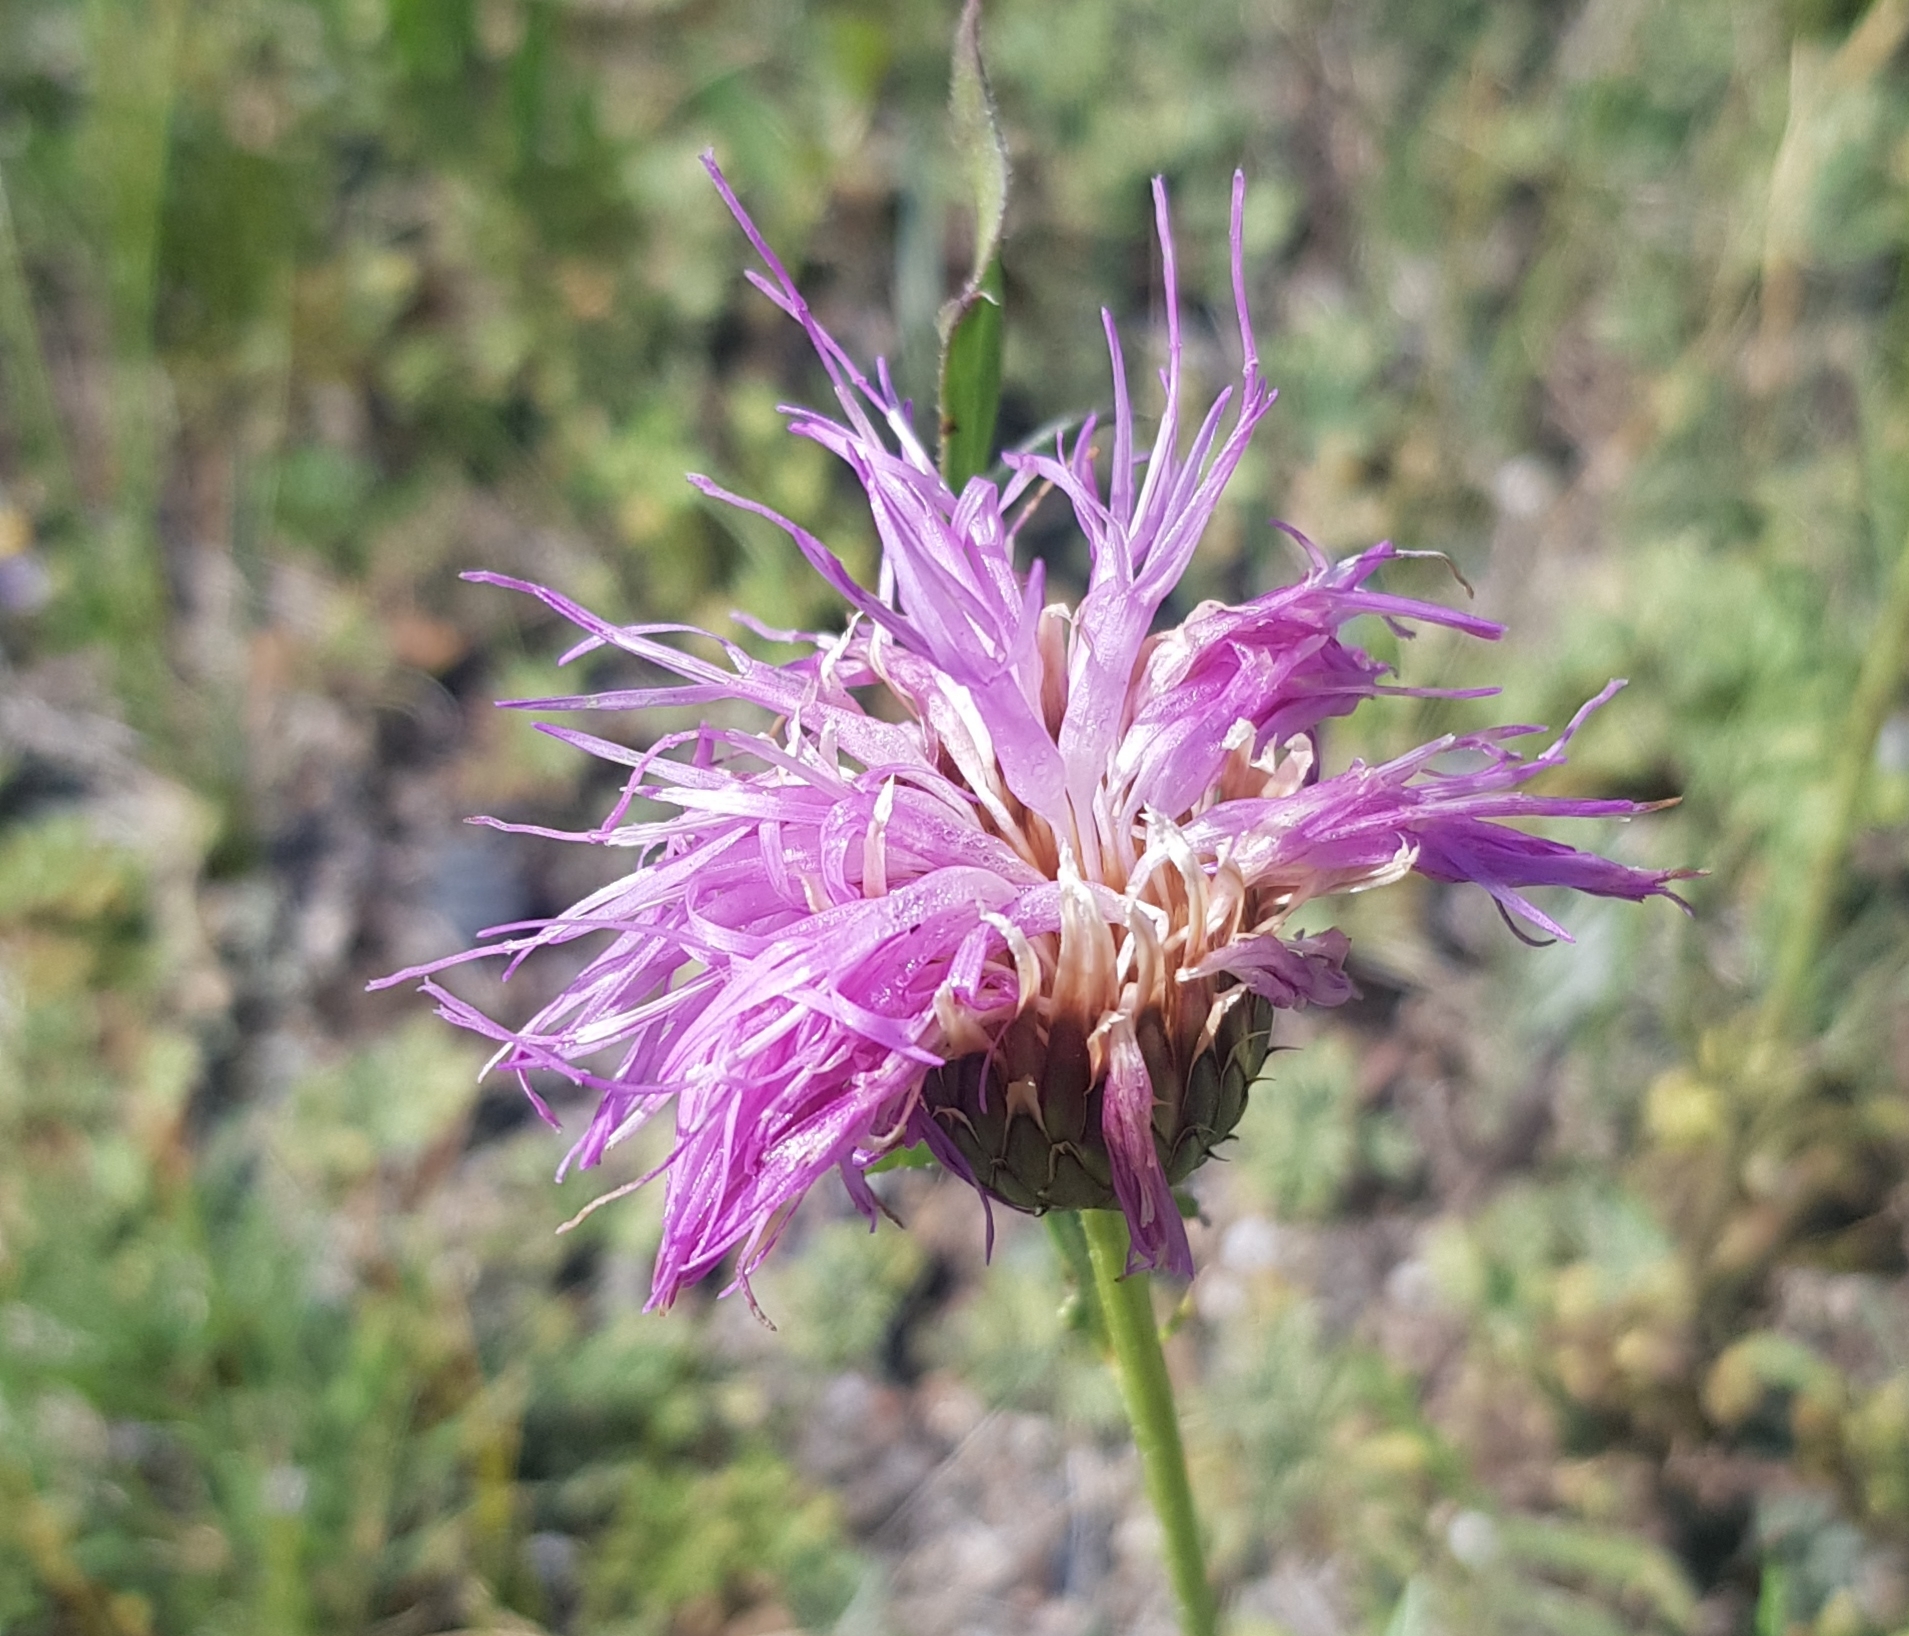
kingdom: Plantae
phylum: Tracheophyta
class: Magnoliopsida
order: Asterales
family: Asteraceae
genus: Klasea
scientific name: Klasea centauroides
